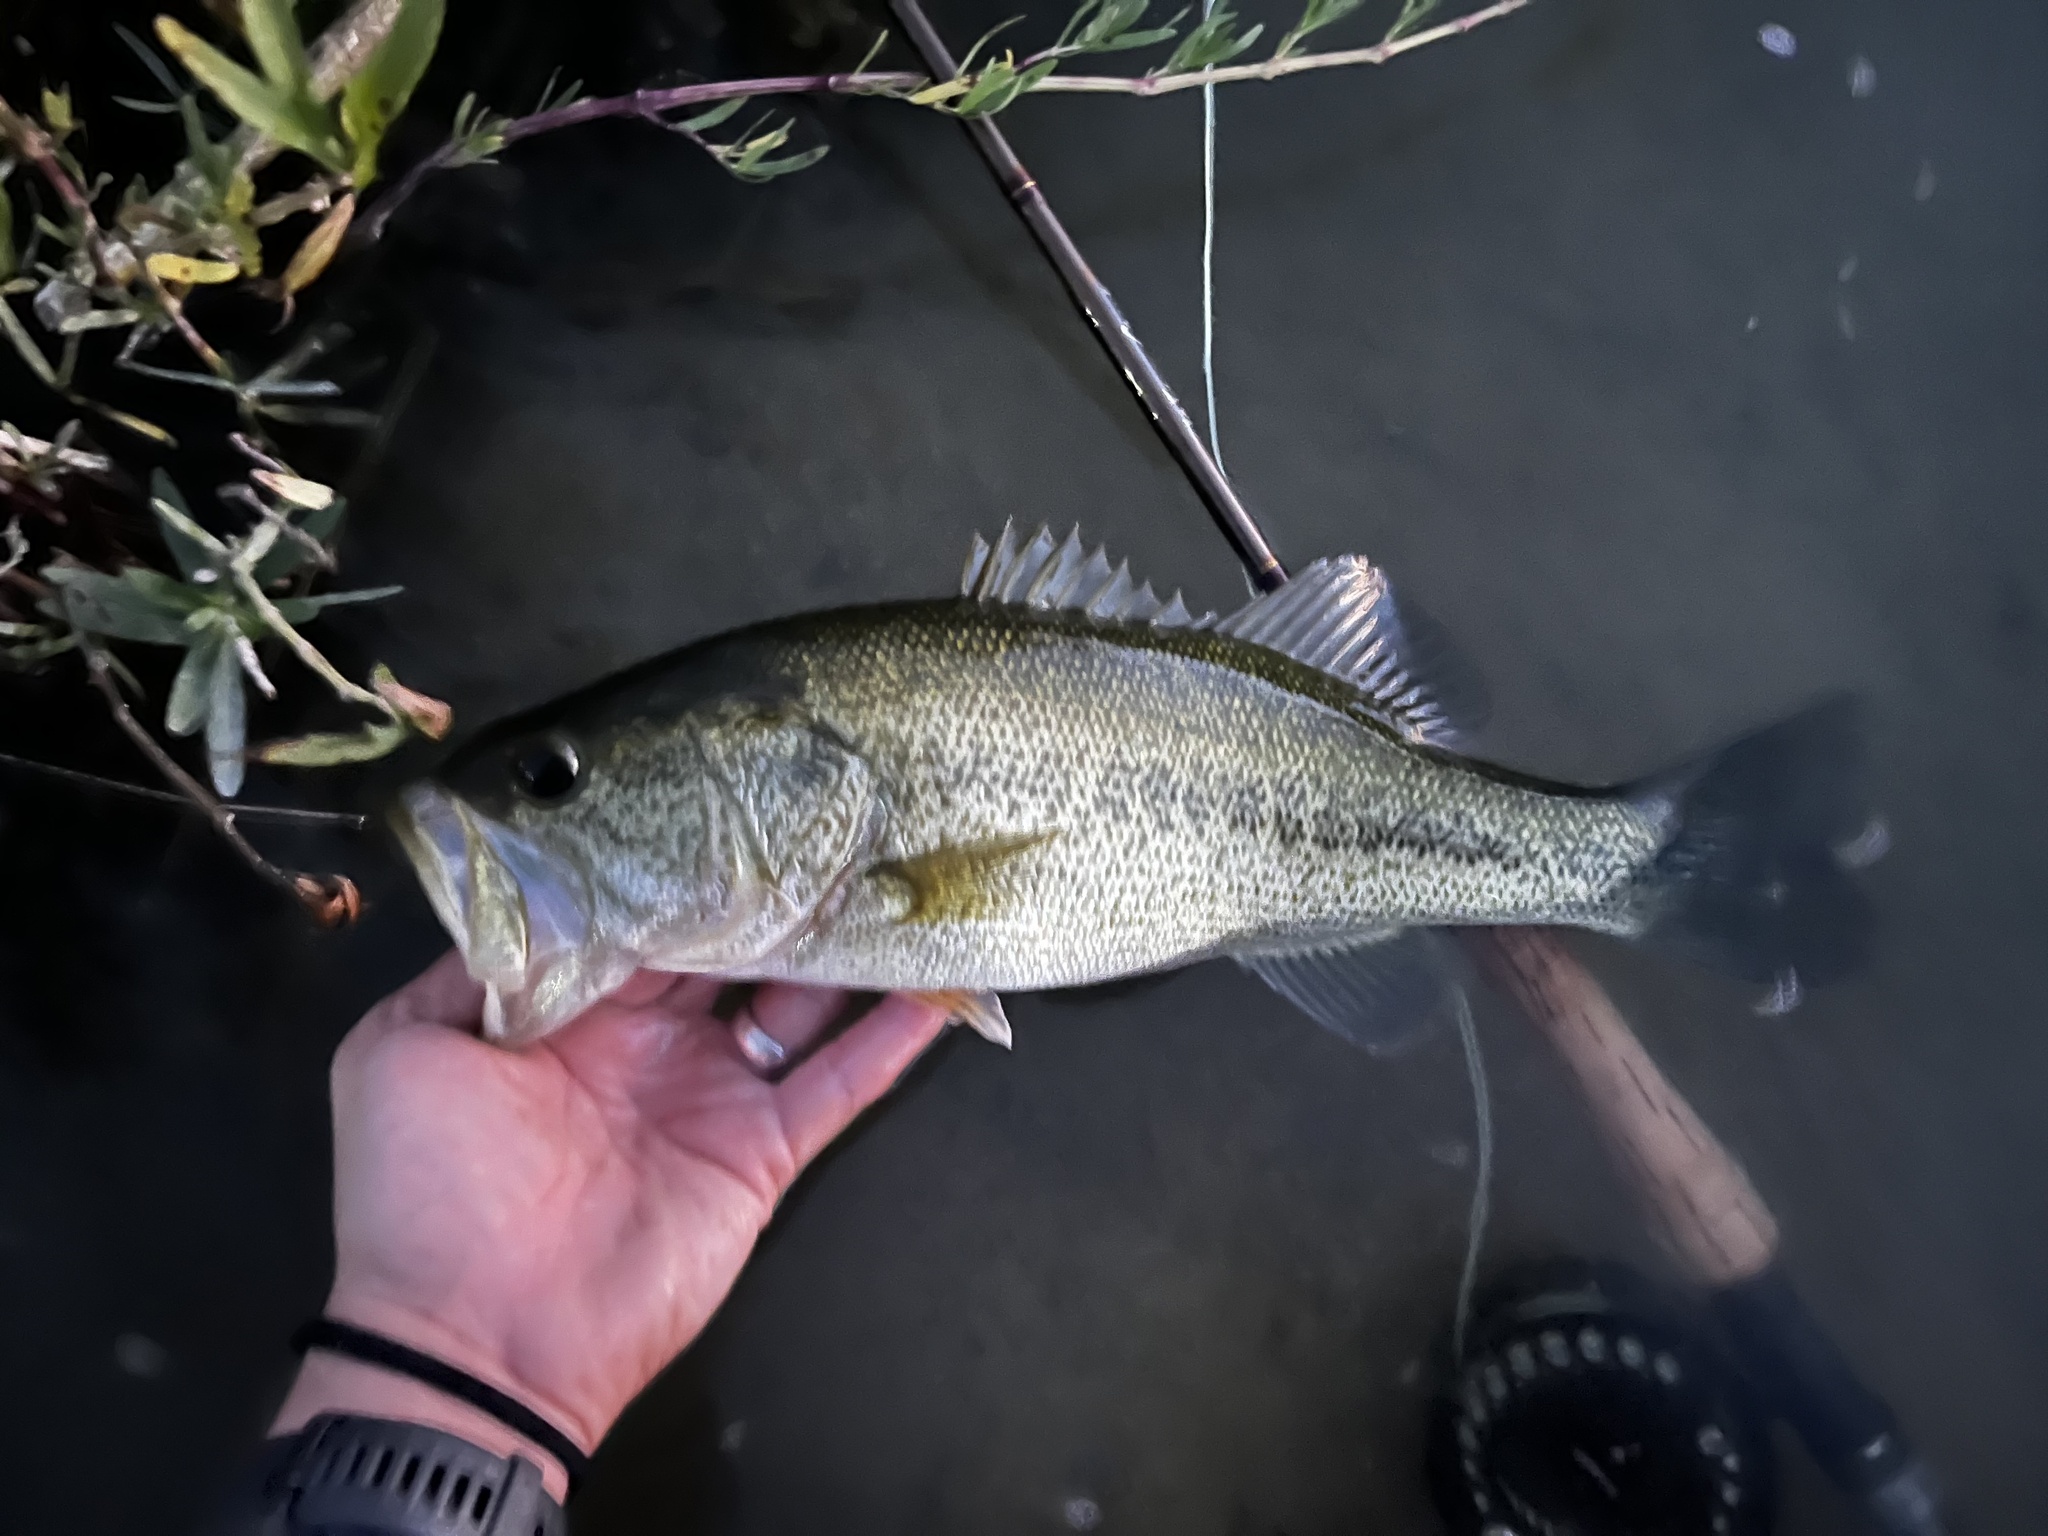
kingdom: Animalia
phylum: Chordata
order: Perciformes
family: Centrarchidae
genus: Micropterus
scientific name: Micropterus
